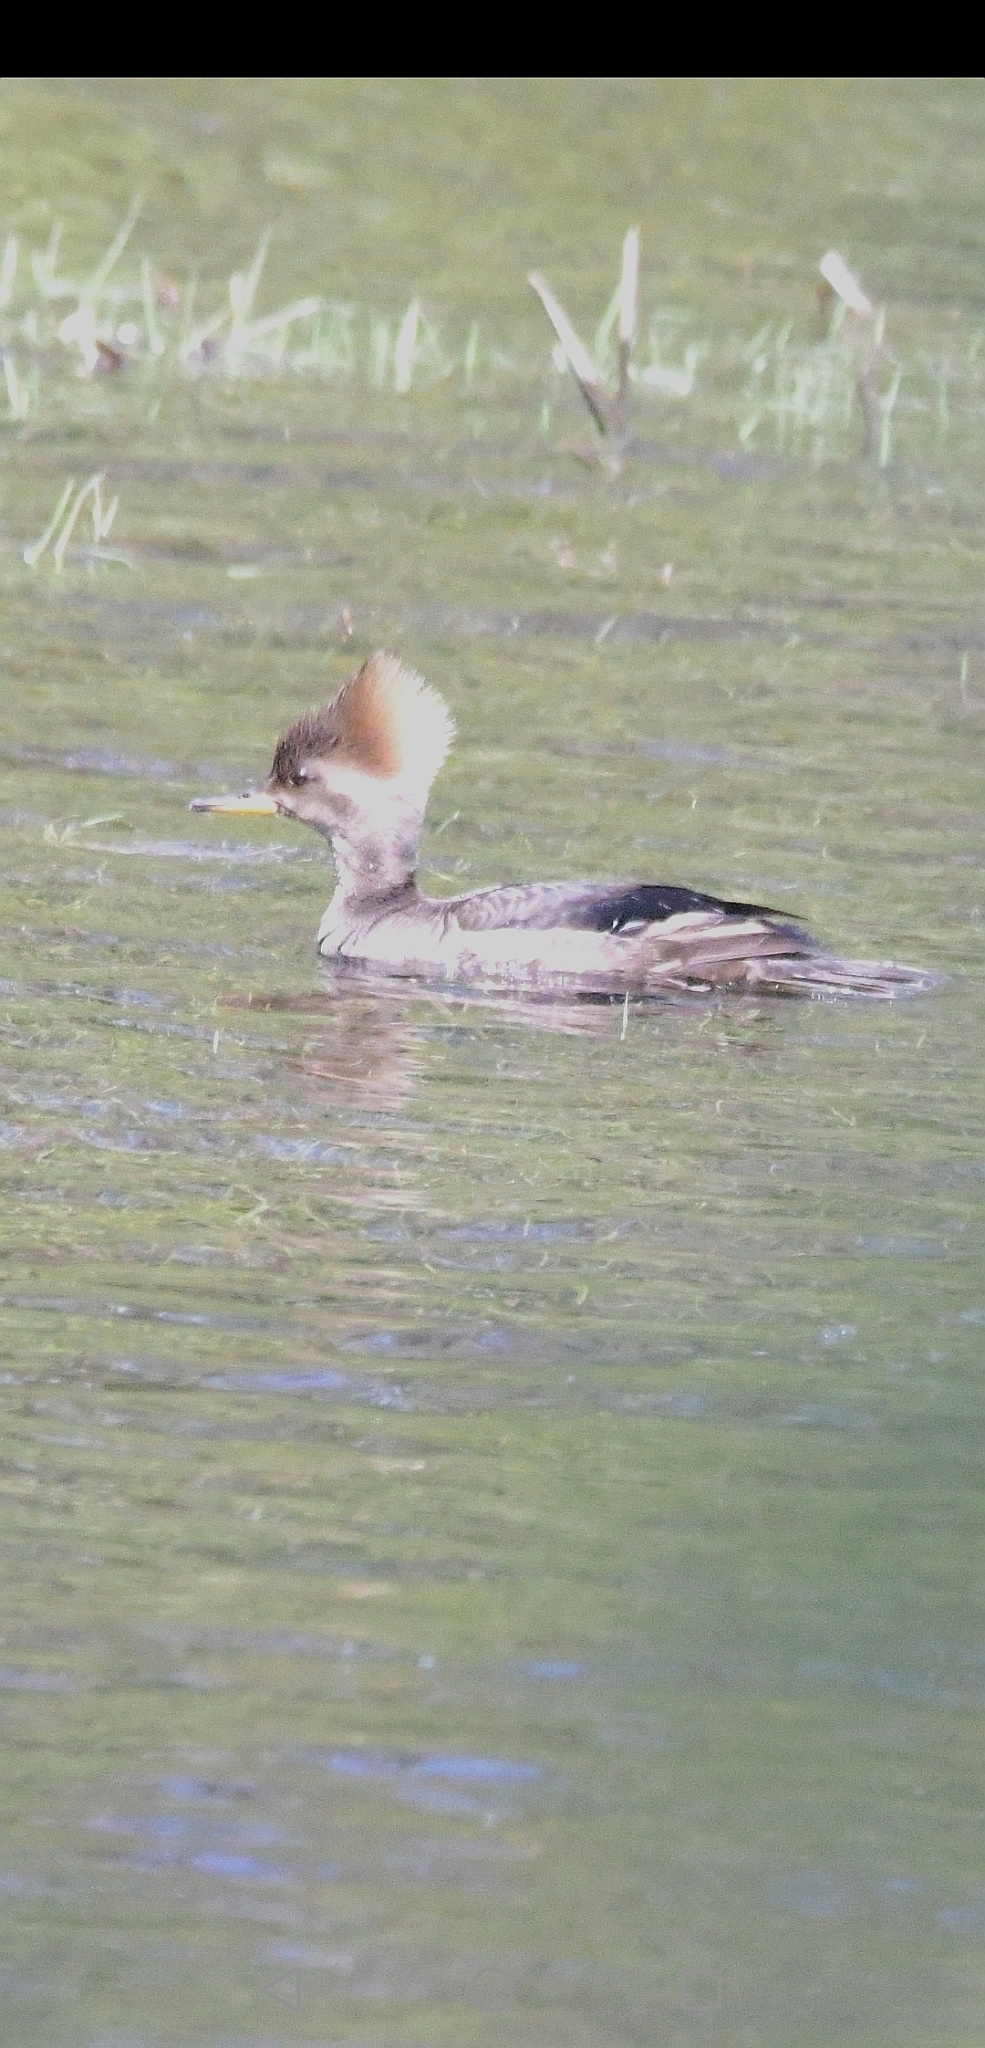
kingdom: Animalia
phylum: Chordata
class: Aves
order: Anseriformes
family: Anatidae
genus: Lophodytes
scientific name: Lophodytes cucullatus
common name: Hooded merganser
